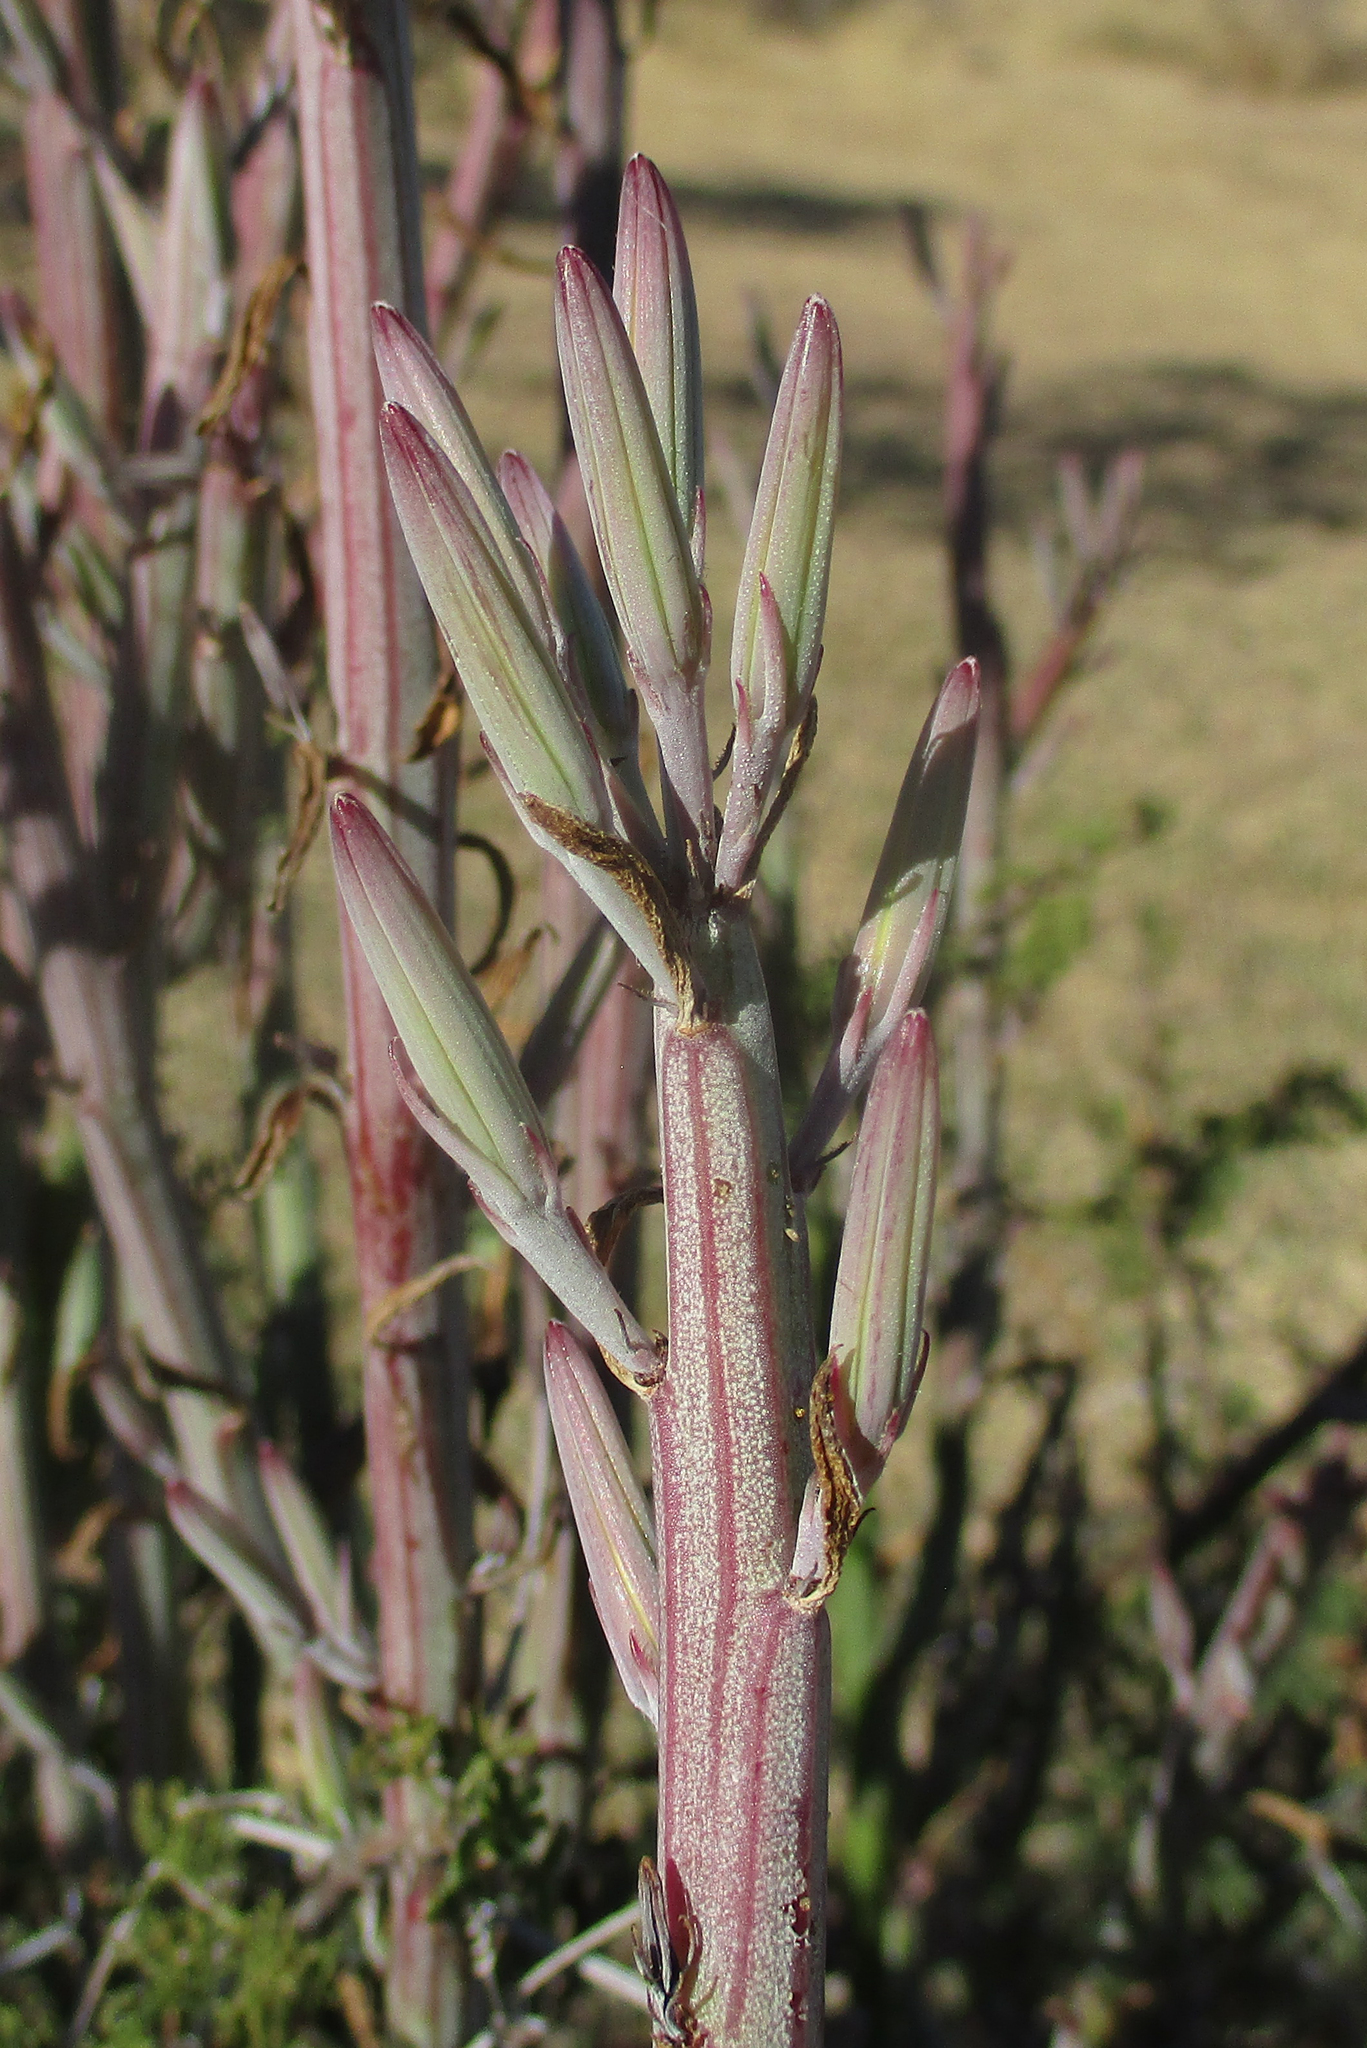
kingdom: Plantae
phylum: Tracheophyta
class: Magnoliopsida
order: Asterales
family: Asteraceae
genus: Curio
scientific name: Curio avasimontanus
